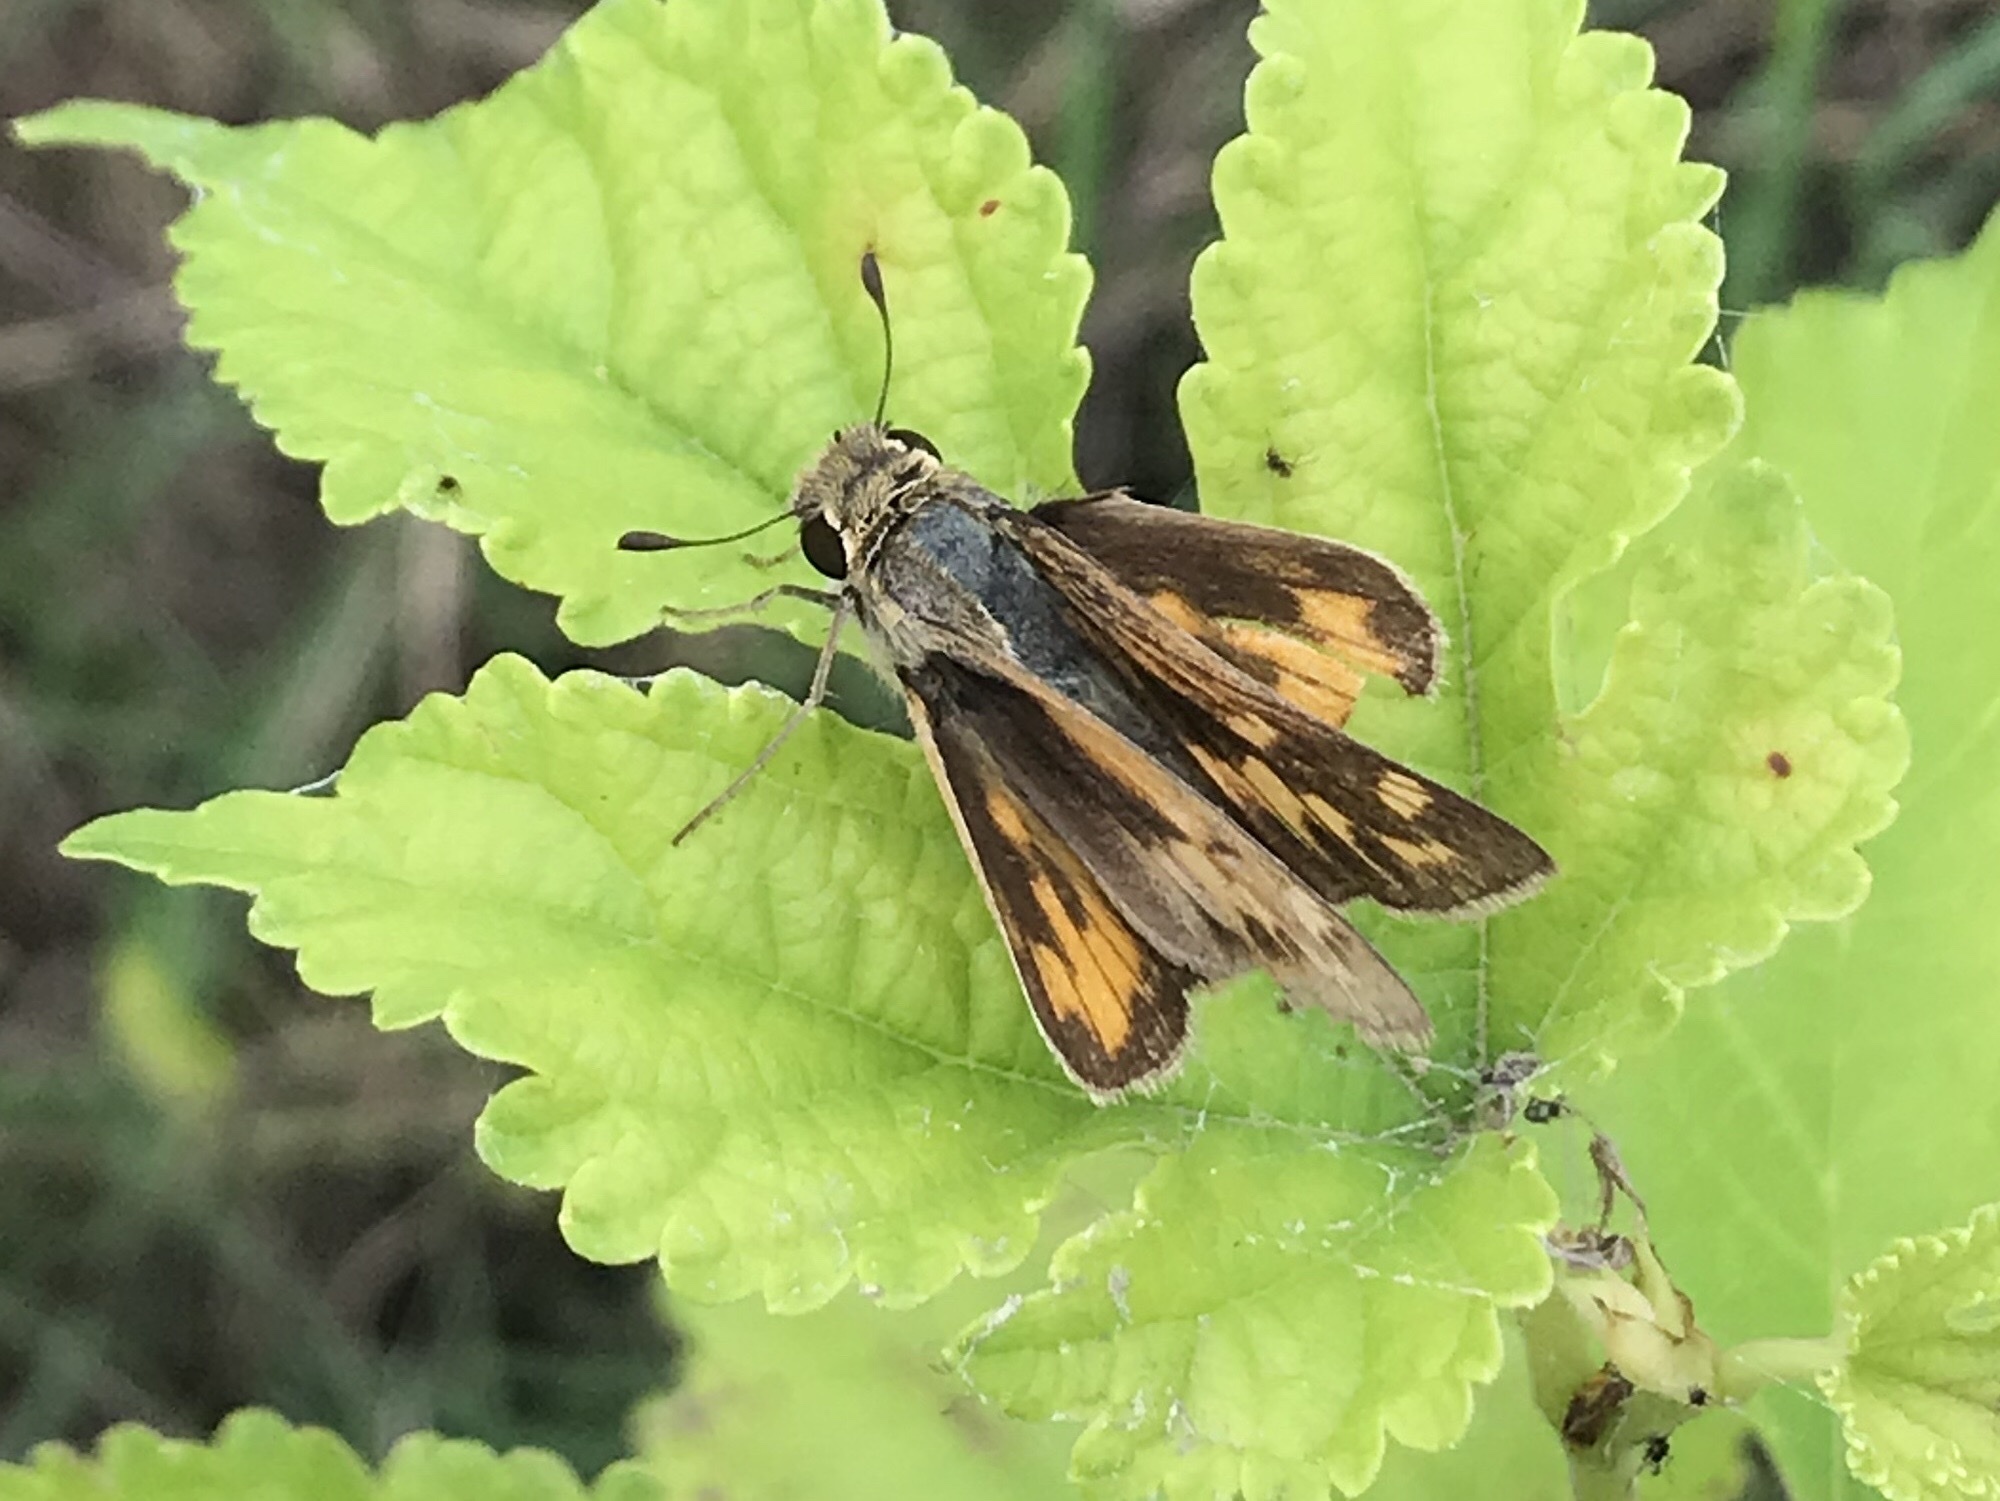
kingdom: Animalia
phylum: Arthropoda
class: Insecta
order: Lepidoptera
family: Hesperiidae
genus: Hylephila
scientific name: Hylephila phyleus
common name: Fiery skipper
